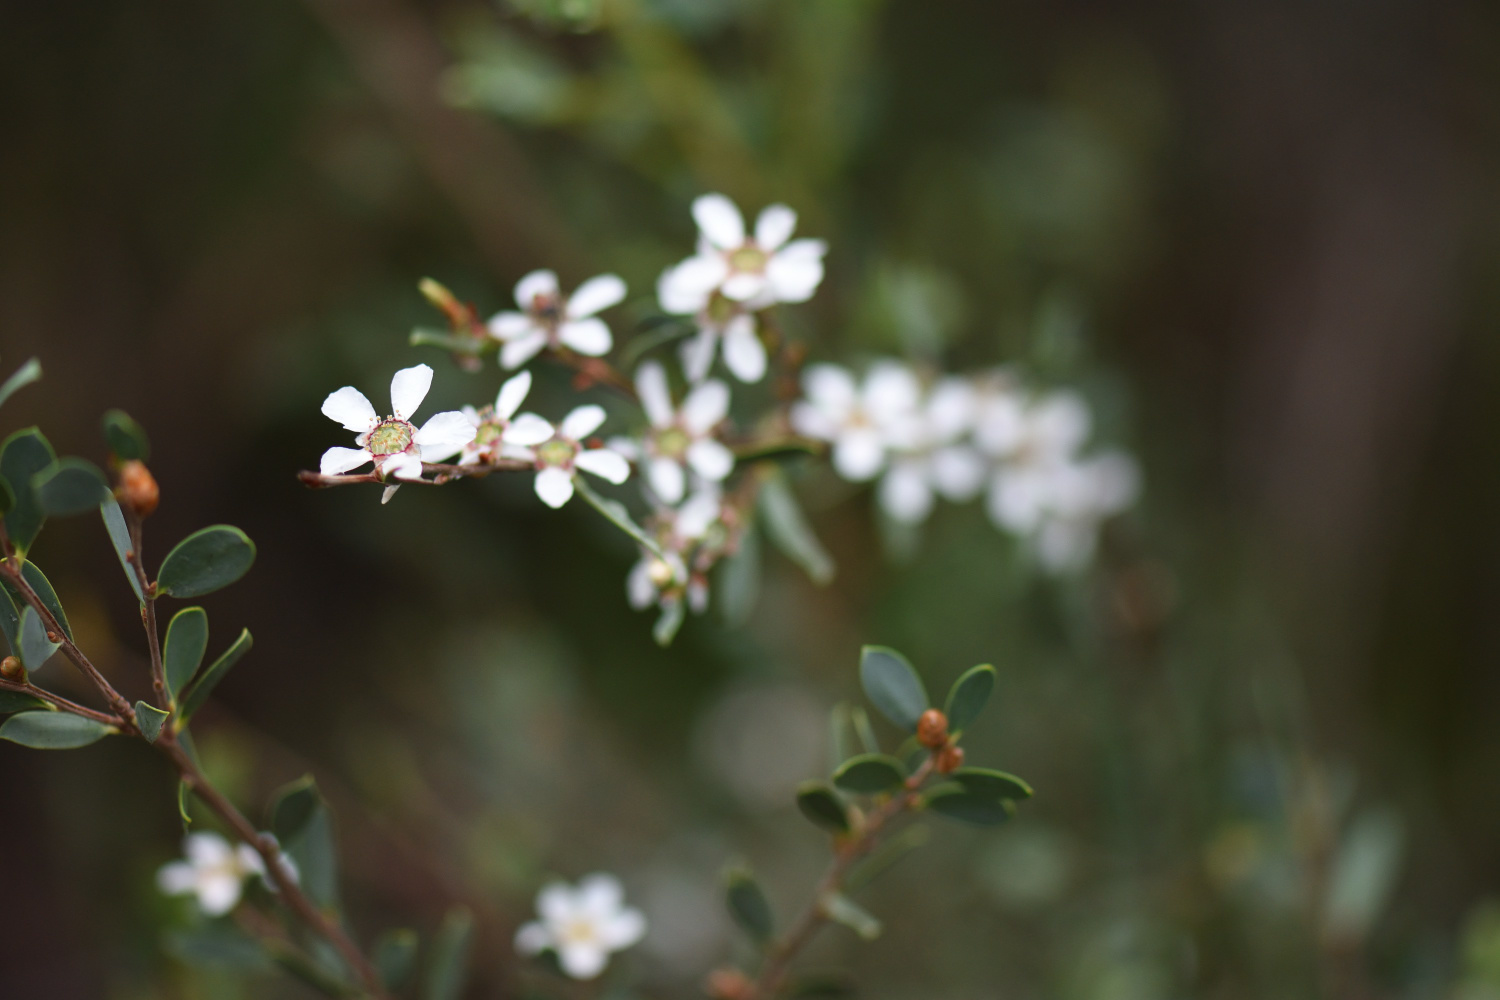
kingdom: Plantae
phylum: Tracheophyta
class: Magnoliopsida
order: Myrtales
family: Myrtaceae
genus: Leptospermum
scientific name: Leptospermum laevigatum
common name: Australian teatree
